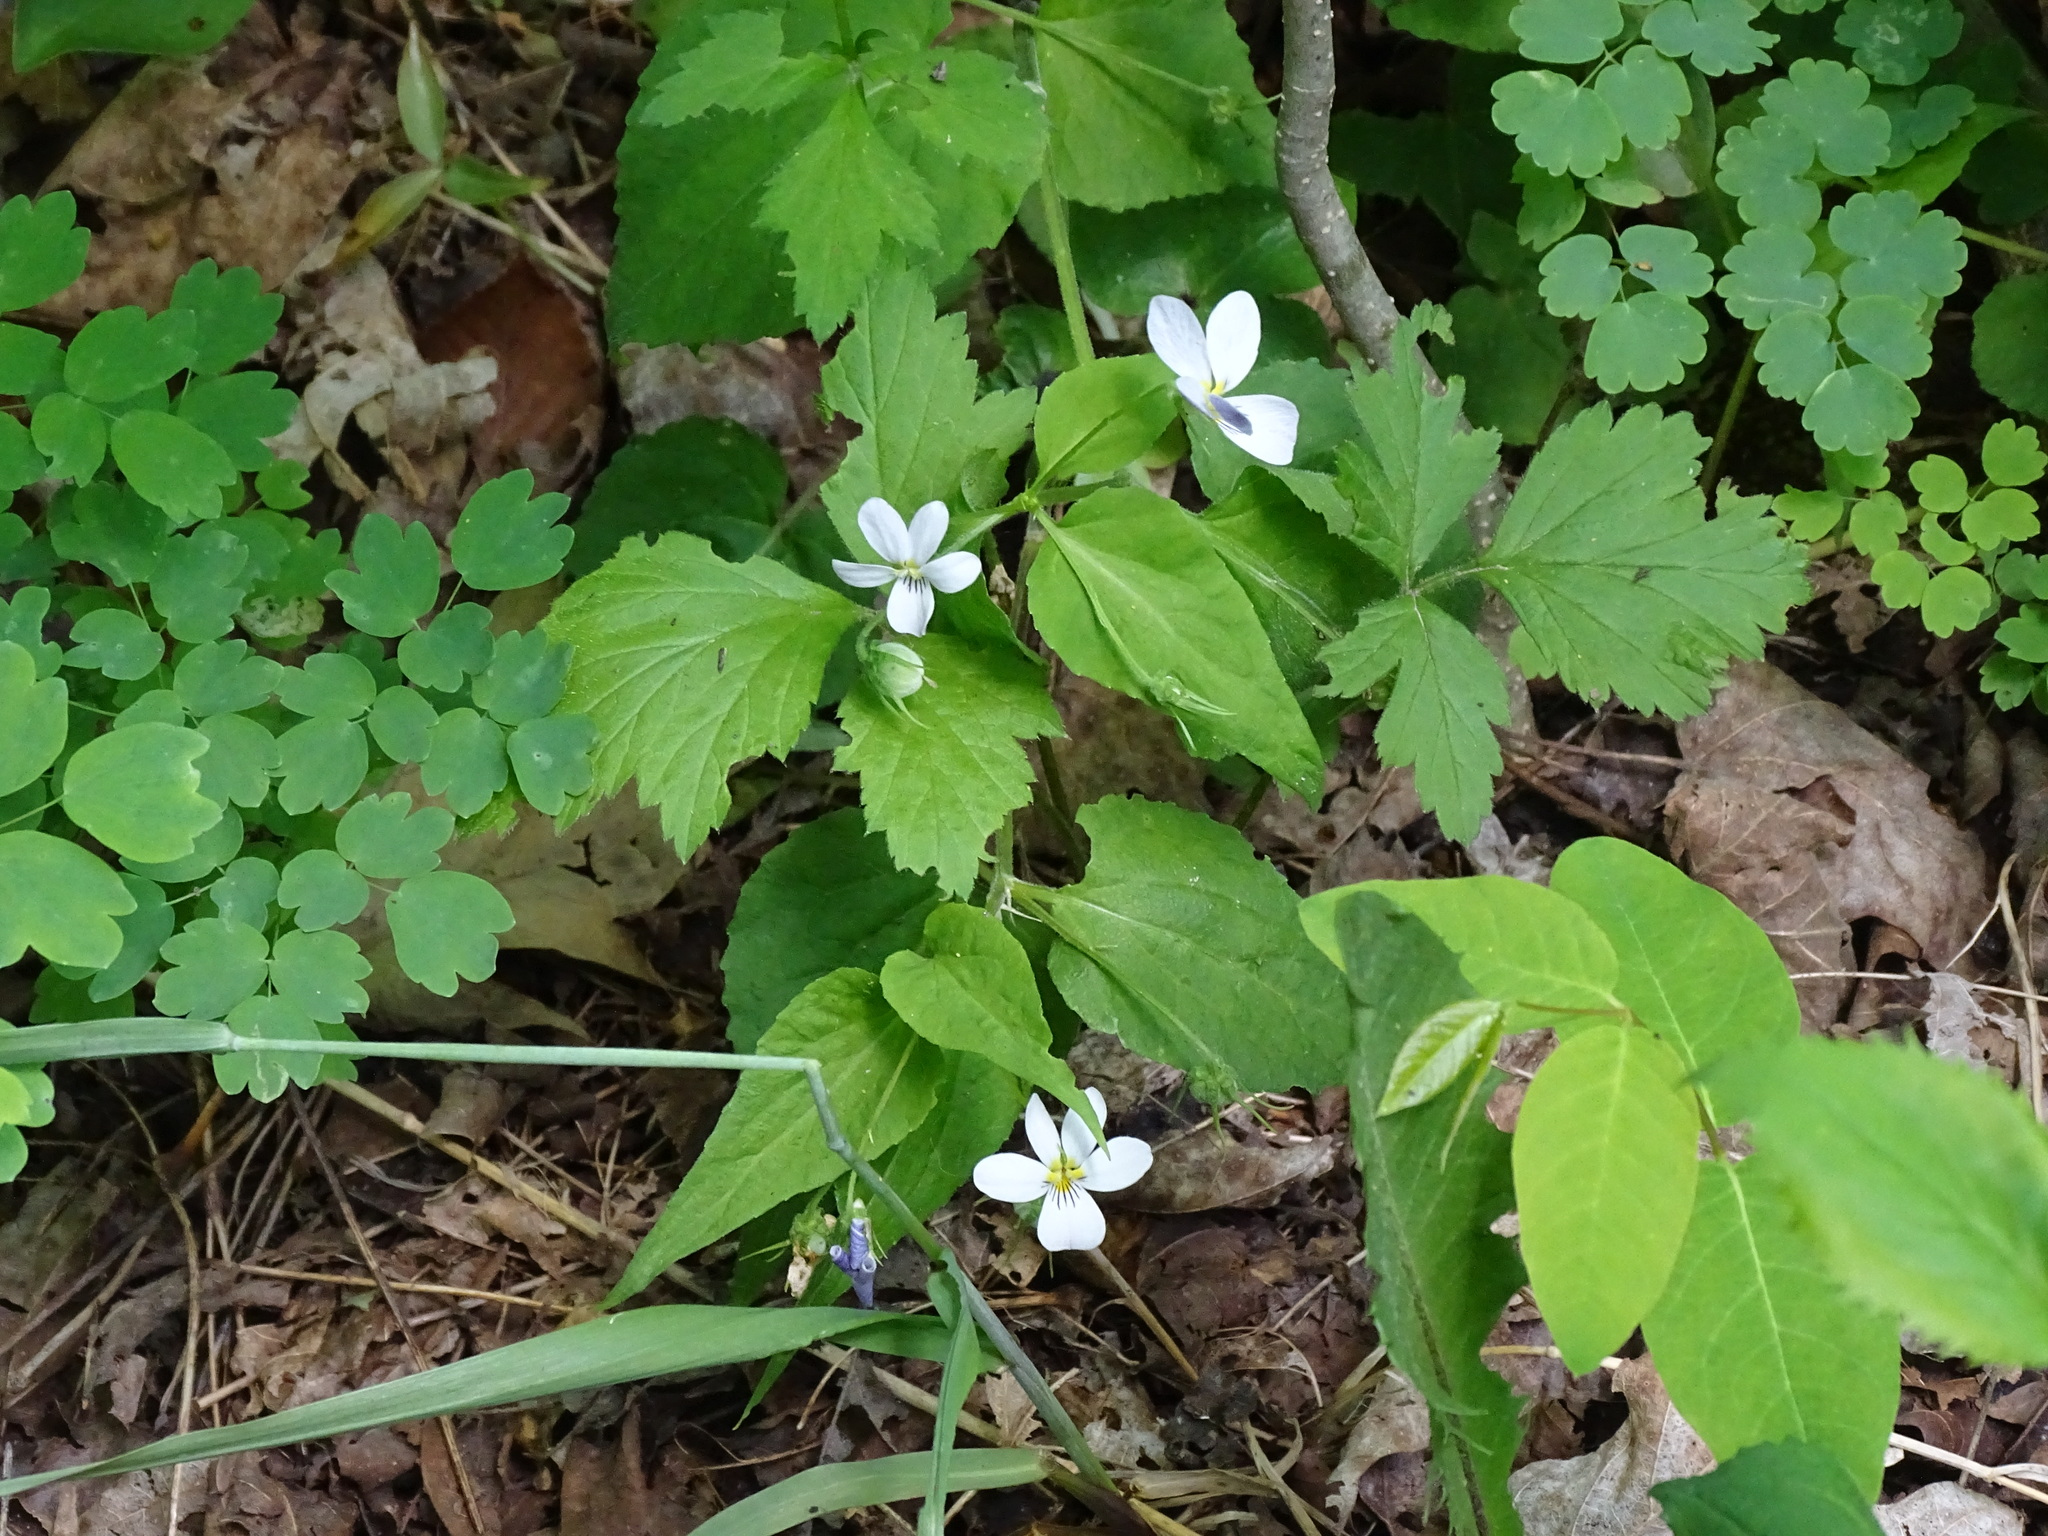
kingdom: Plantae
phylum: Tracheophyta
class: Magnoliopsida
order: Malpighiales
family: Violaceae
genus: Viola
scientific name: Viola canadensis
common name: Canada violet
